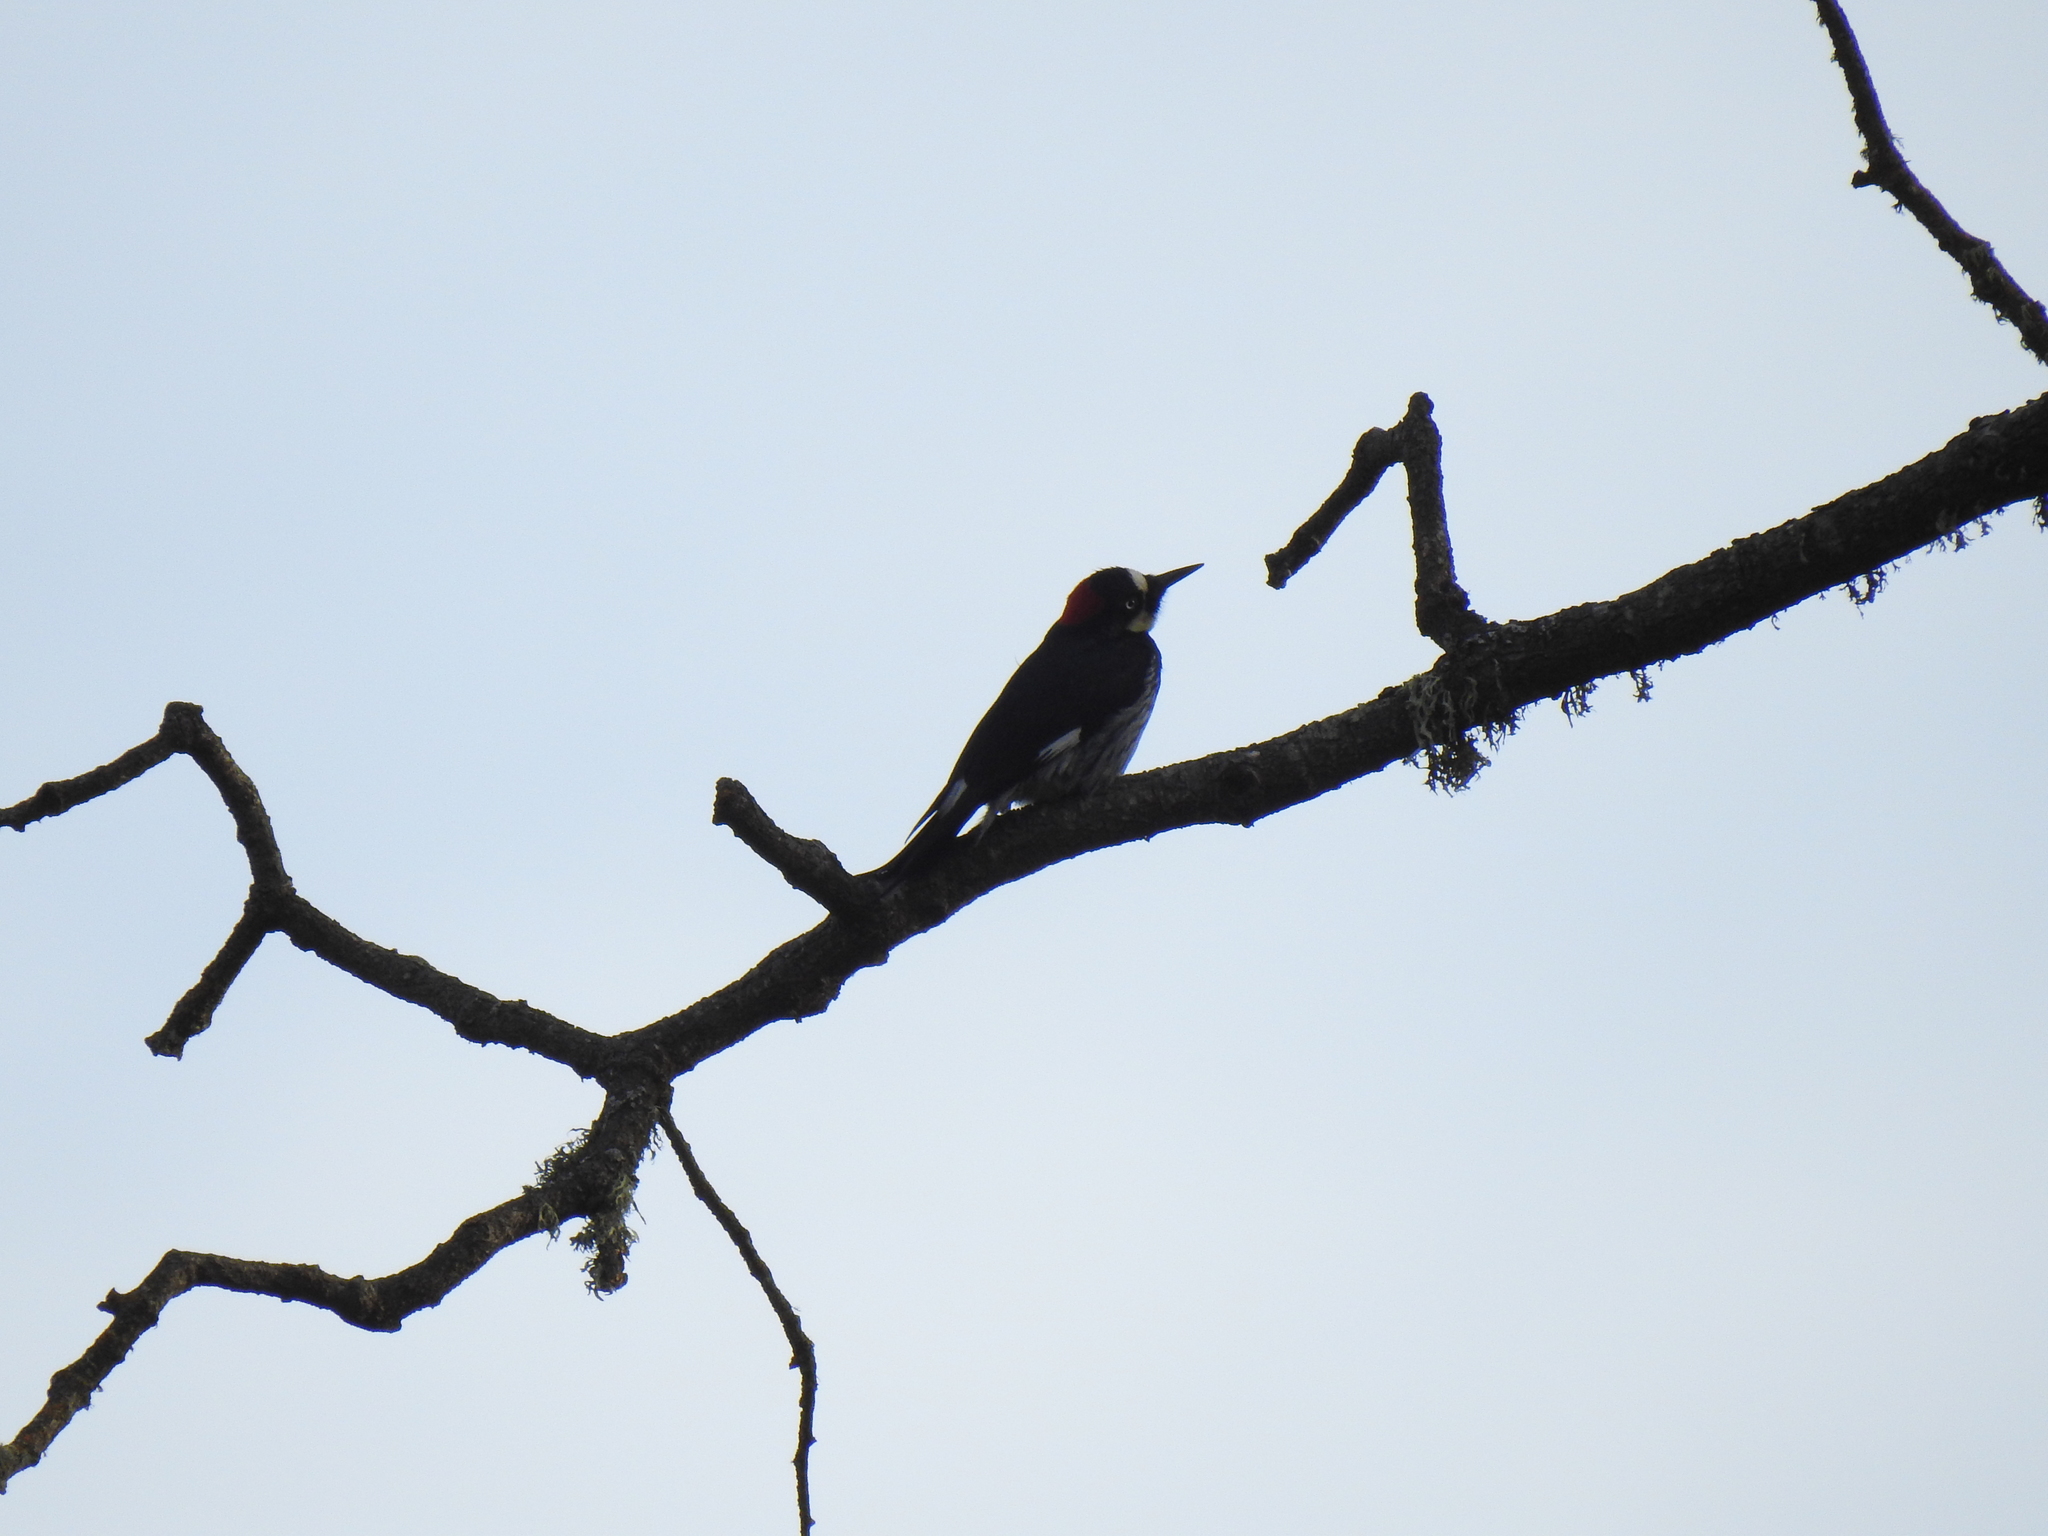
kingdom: Animalia
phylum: Chordata
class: Aves
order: Piciformes
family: Picidae
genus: Melanerpes
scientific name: Melanerpes formicivorus
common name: Acorn woodpecker
